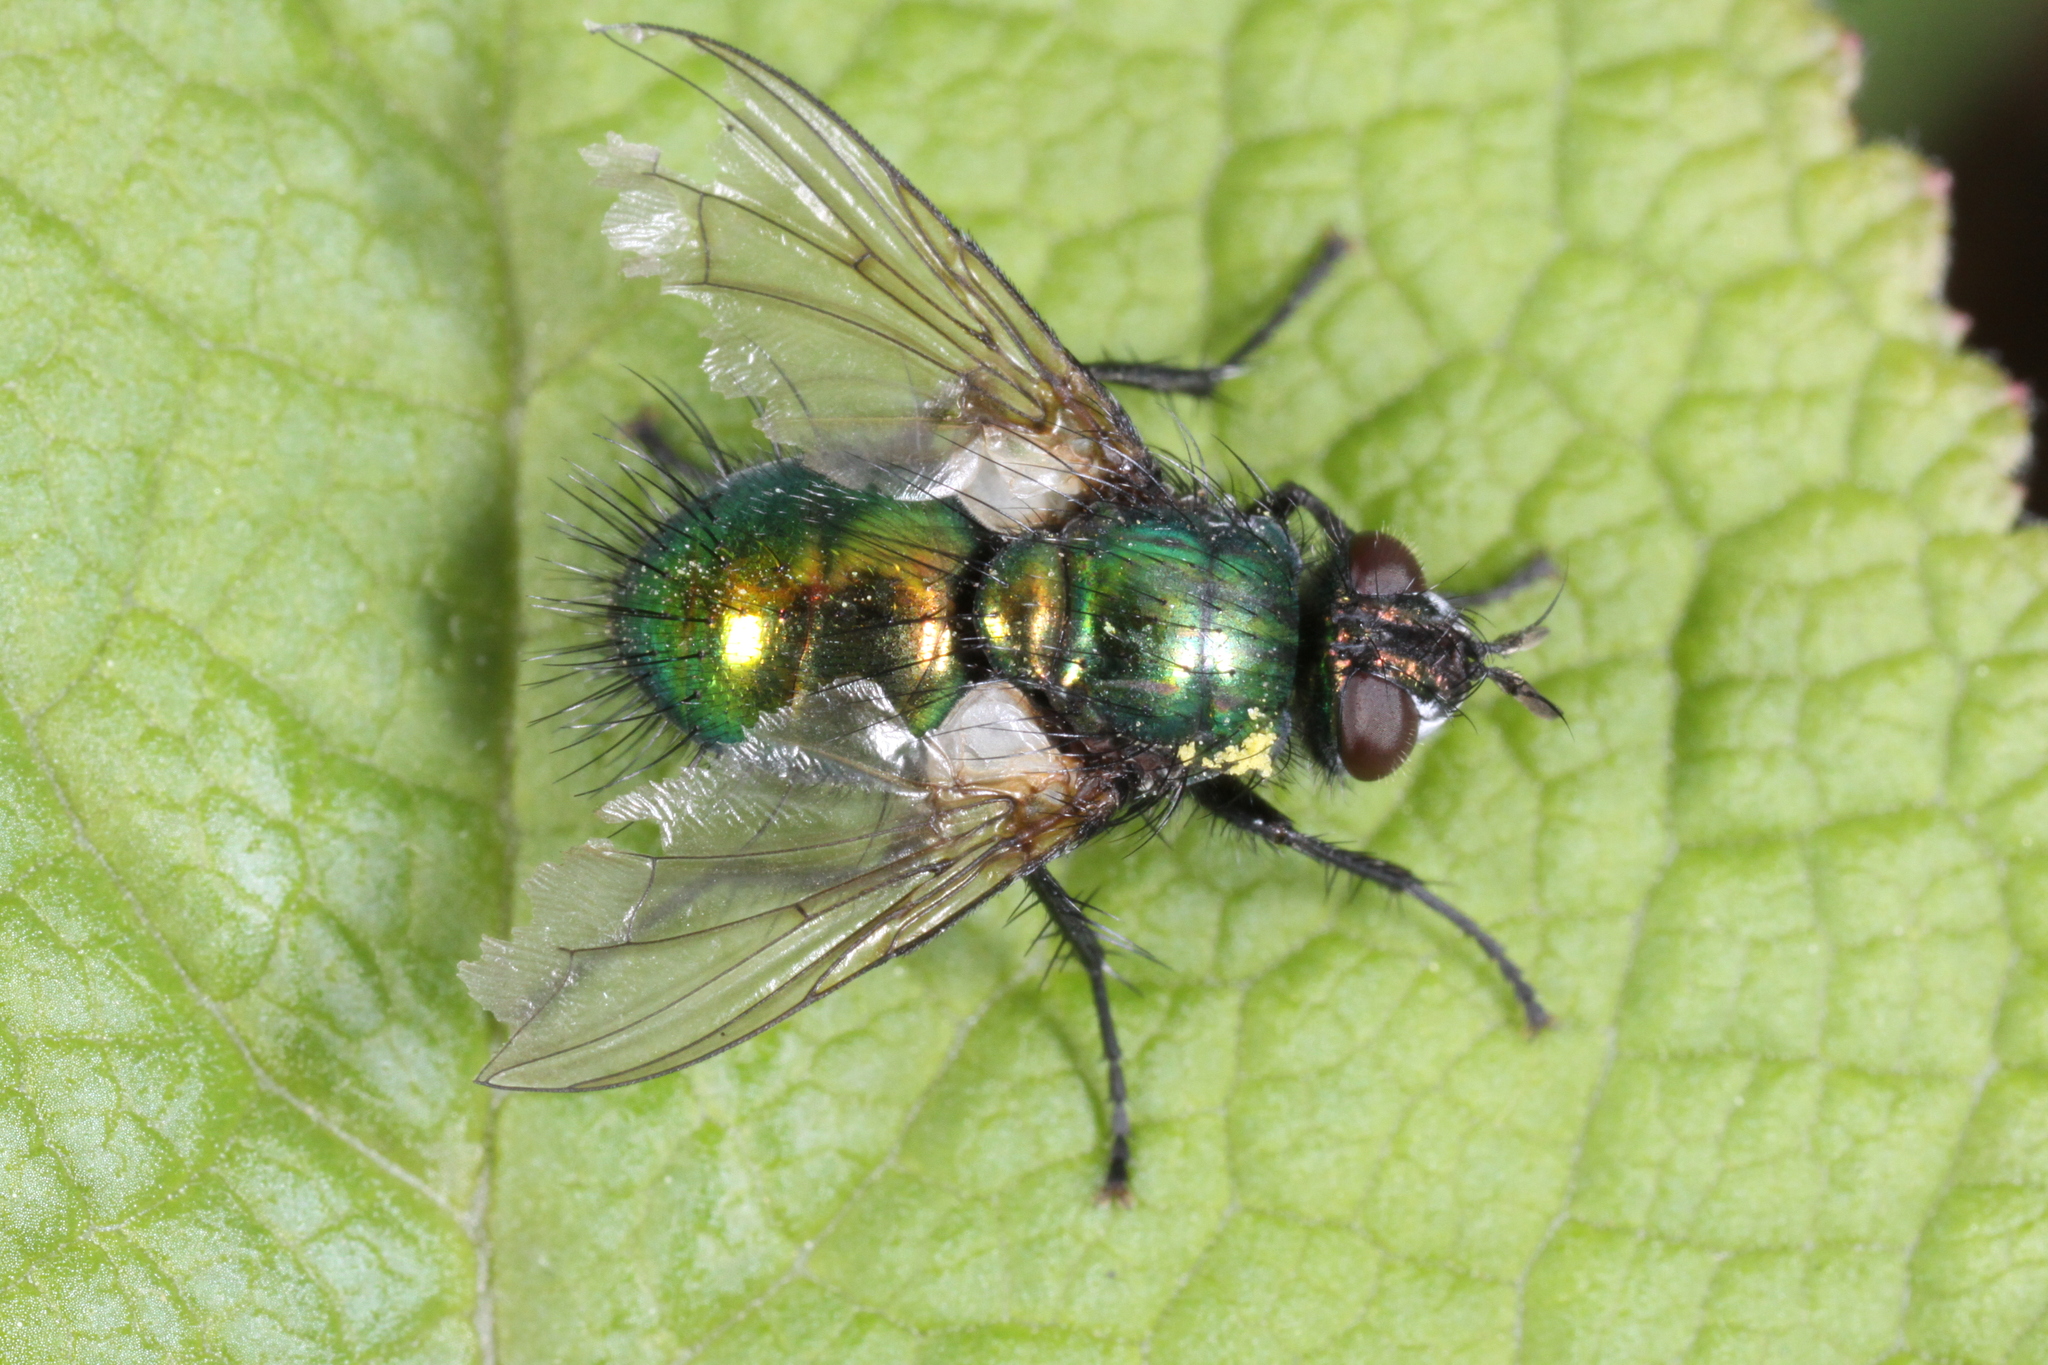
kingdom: Animalia
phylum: Arthropoda
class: Insecta
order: Diptera
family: Tachinidae
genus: Gymnocheta
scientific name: Gymnocheta viridis
